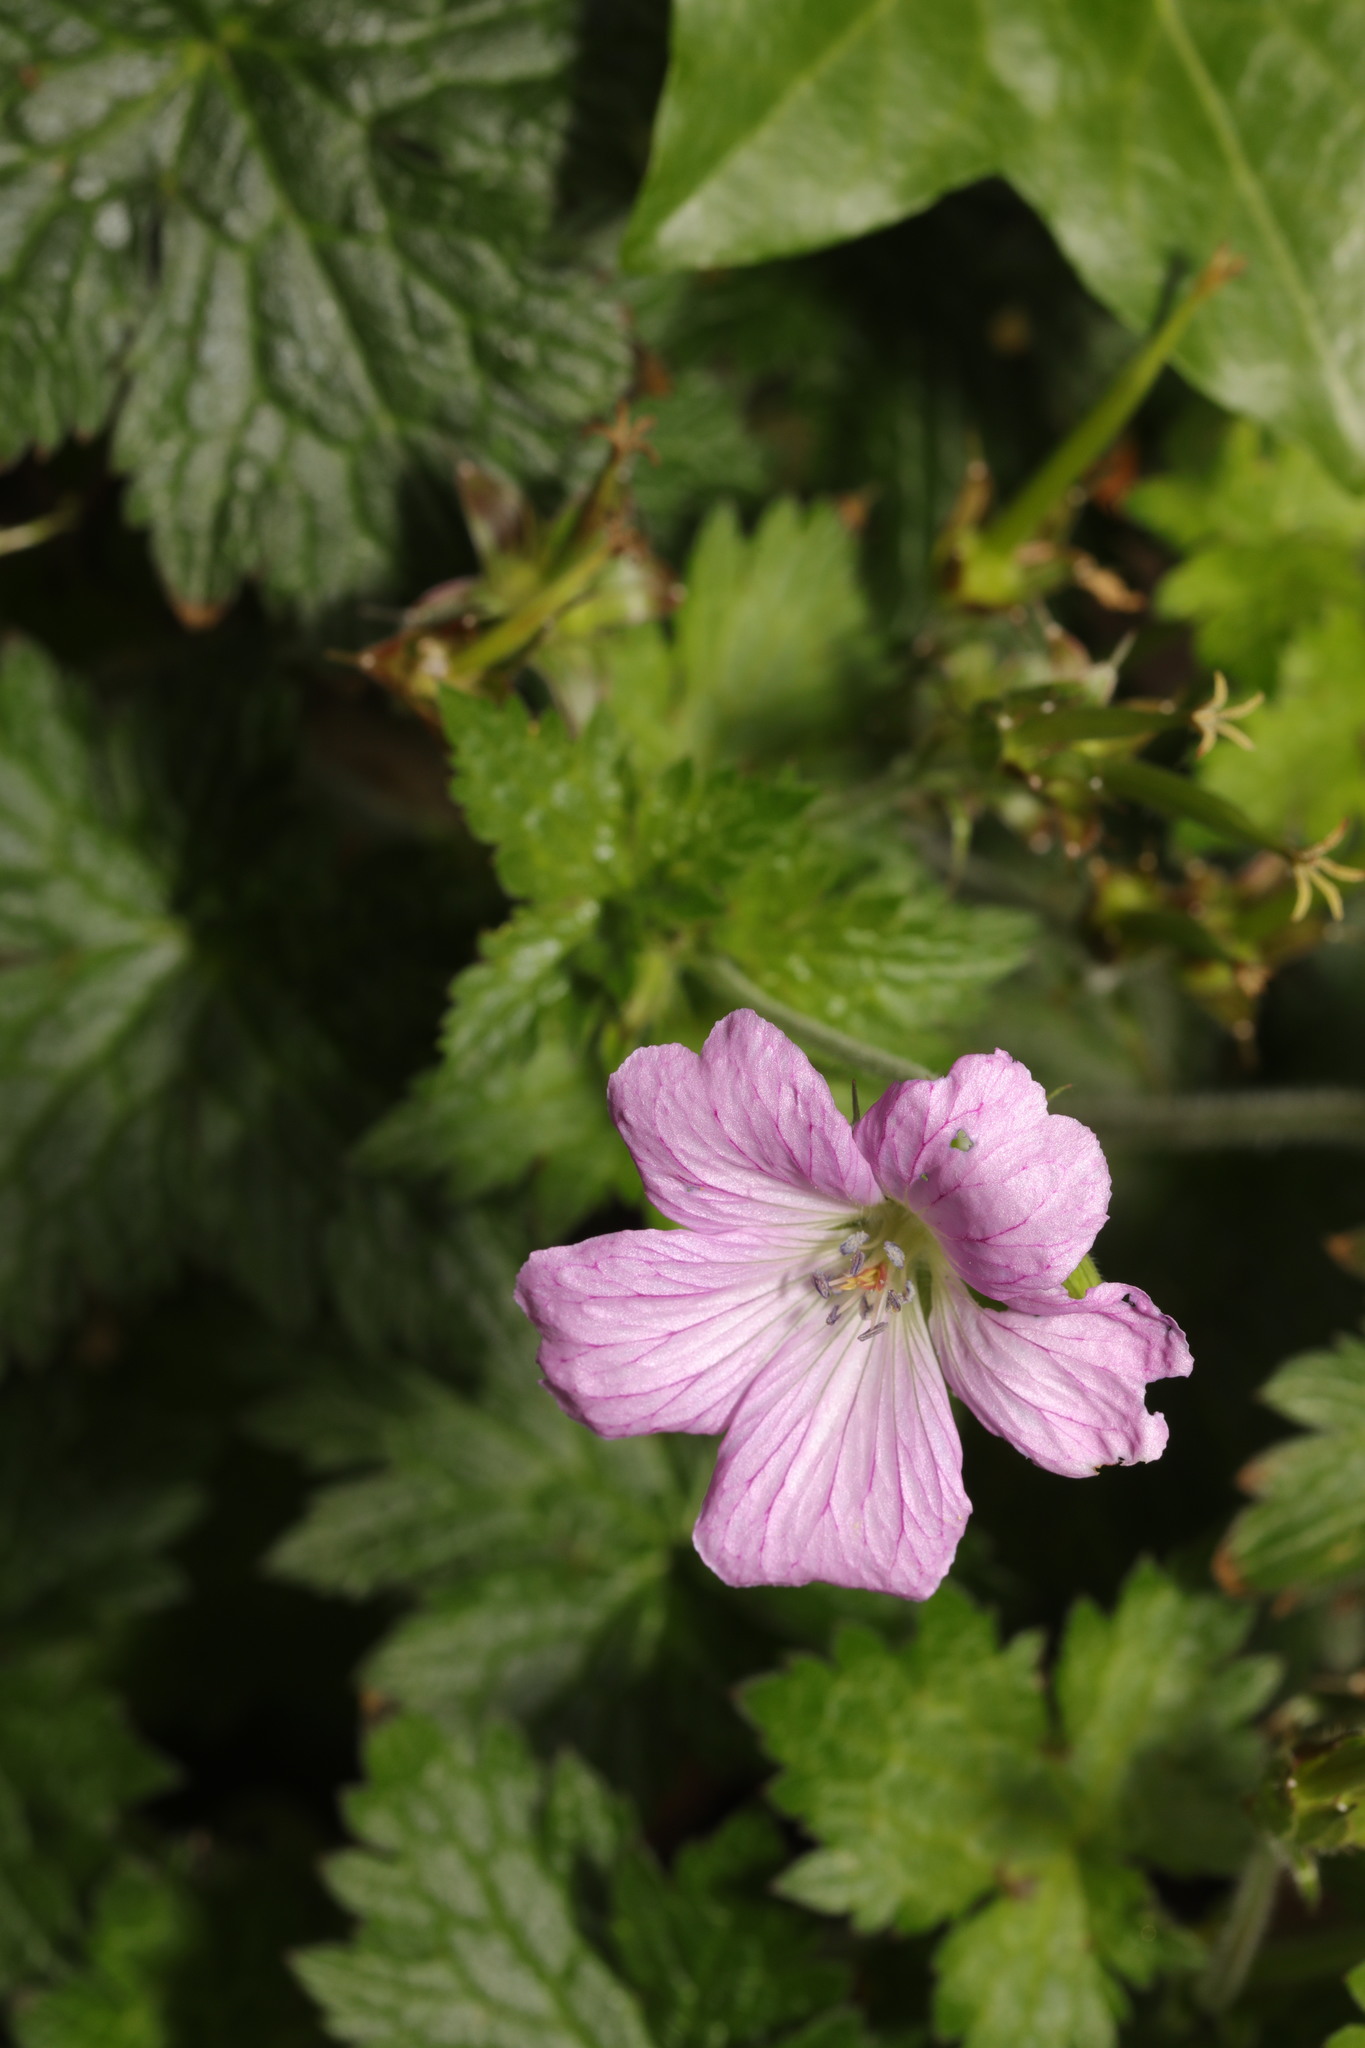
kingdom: Plantae
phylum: Tracheophyta
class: Magnoliopsida
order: Geraniales
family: Geraniaceae
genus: Geranium
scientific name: Geranium oxonianum
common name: Druce's crane's-bill
